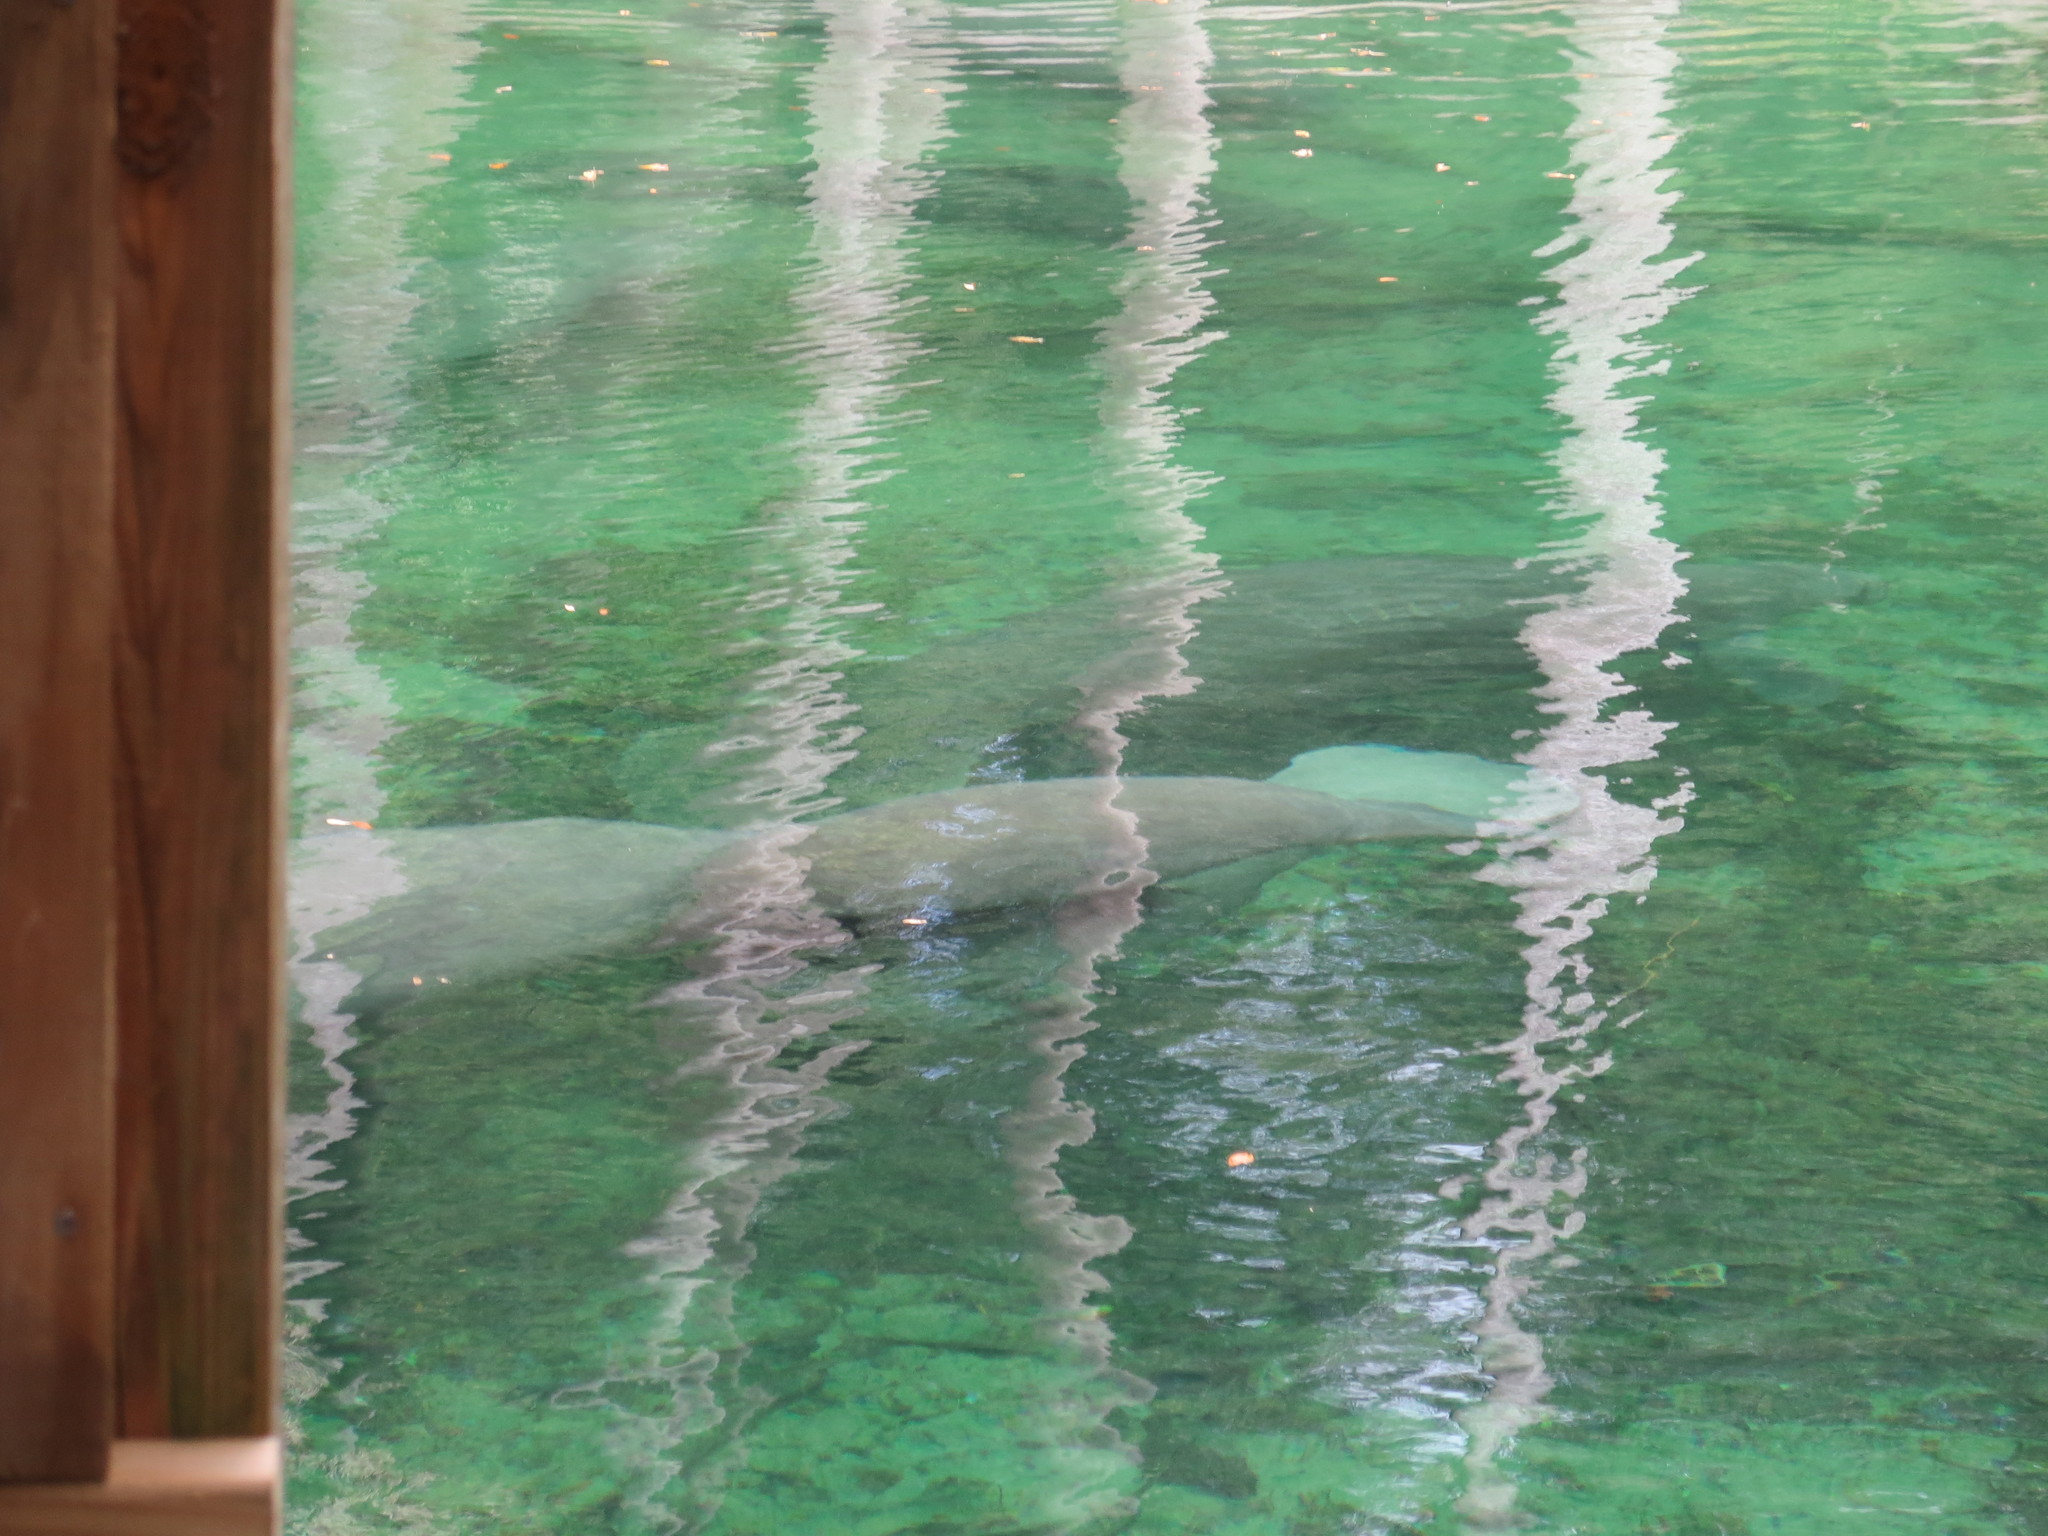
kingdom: Animalia
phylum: Chordata
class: Mammalia
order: Sirenia
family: Trichechidae
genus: Trichechus
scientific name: Trichechus manatus
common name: West indian manatee
